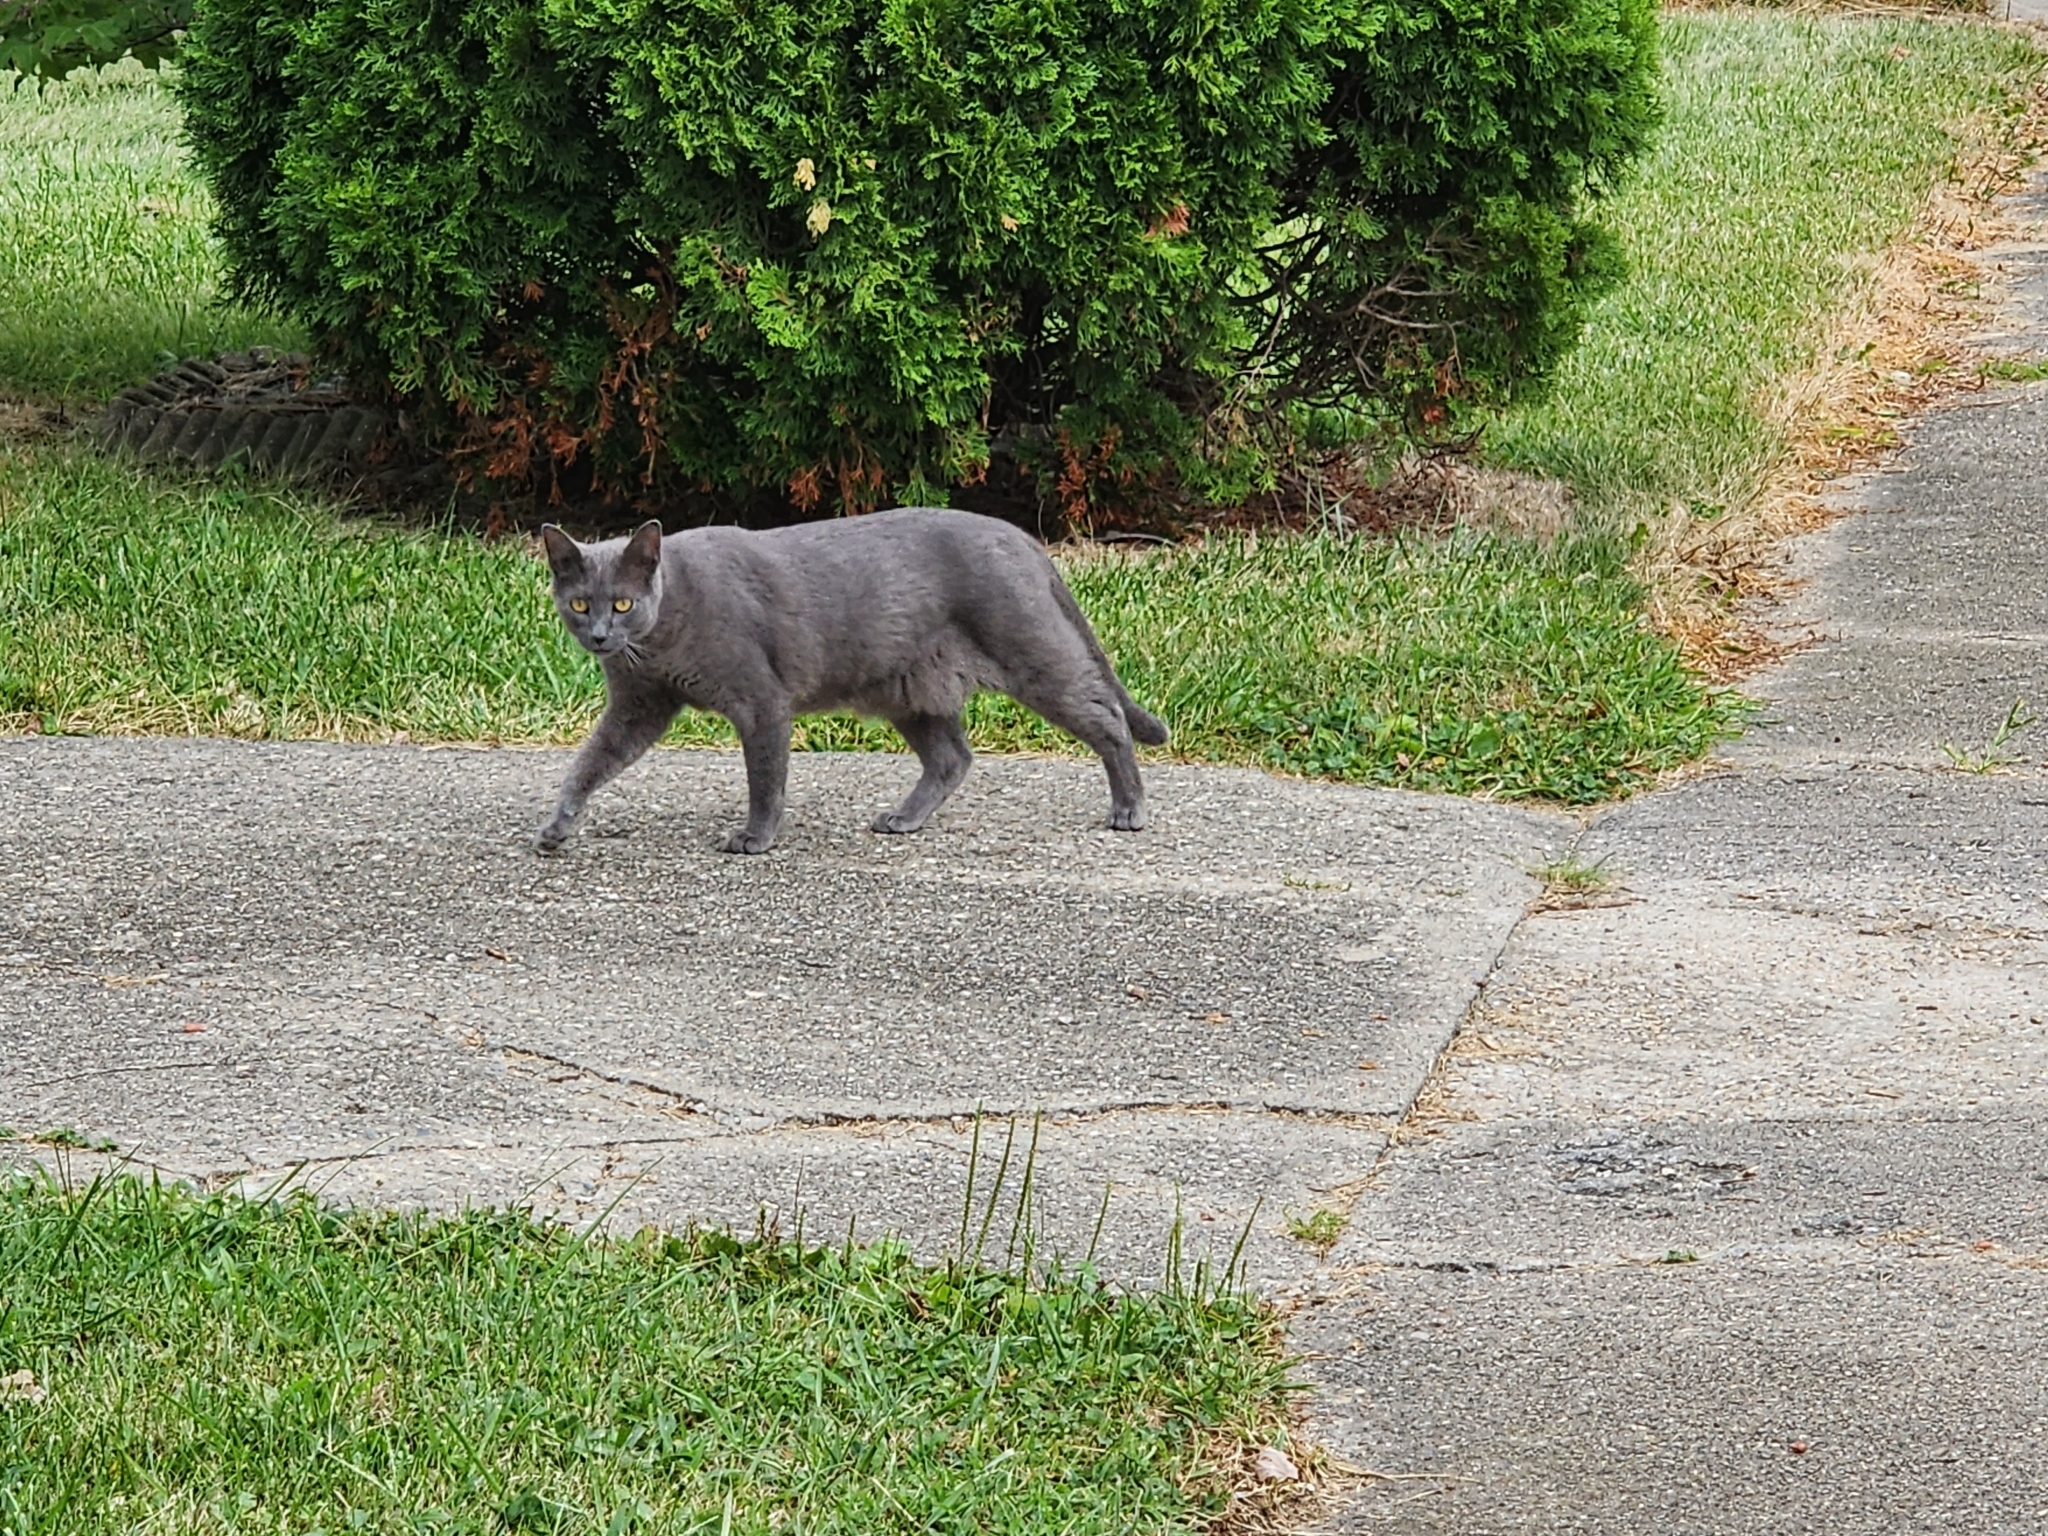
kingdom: Animalia
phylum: Chordata
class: Mammalia
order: Carnivora
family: Felidae
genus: Felis
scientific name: Felis catus
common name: Domestic cat
